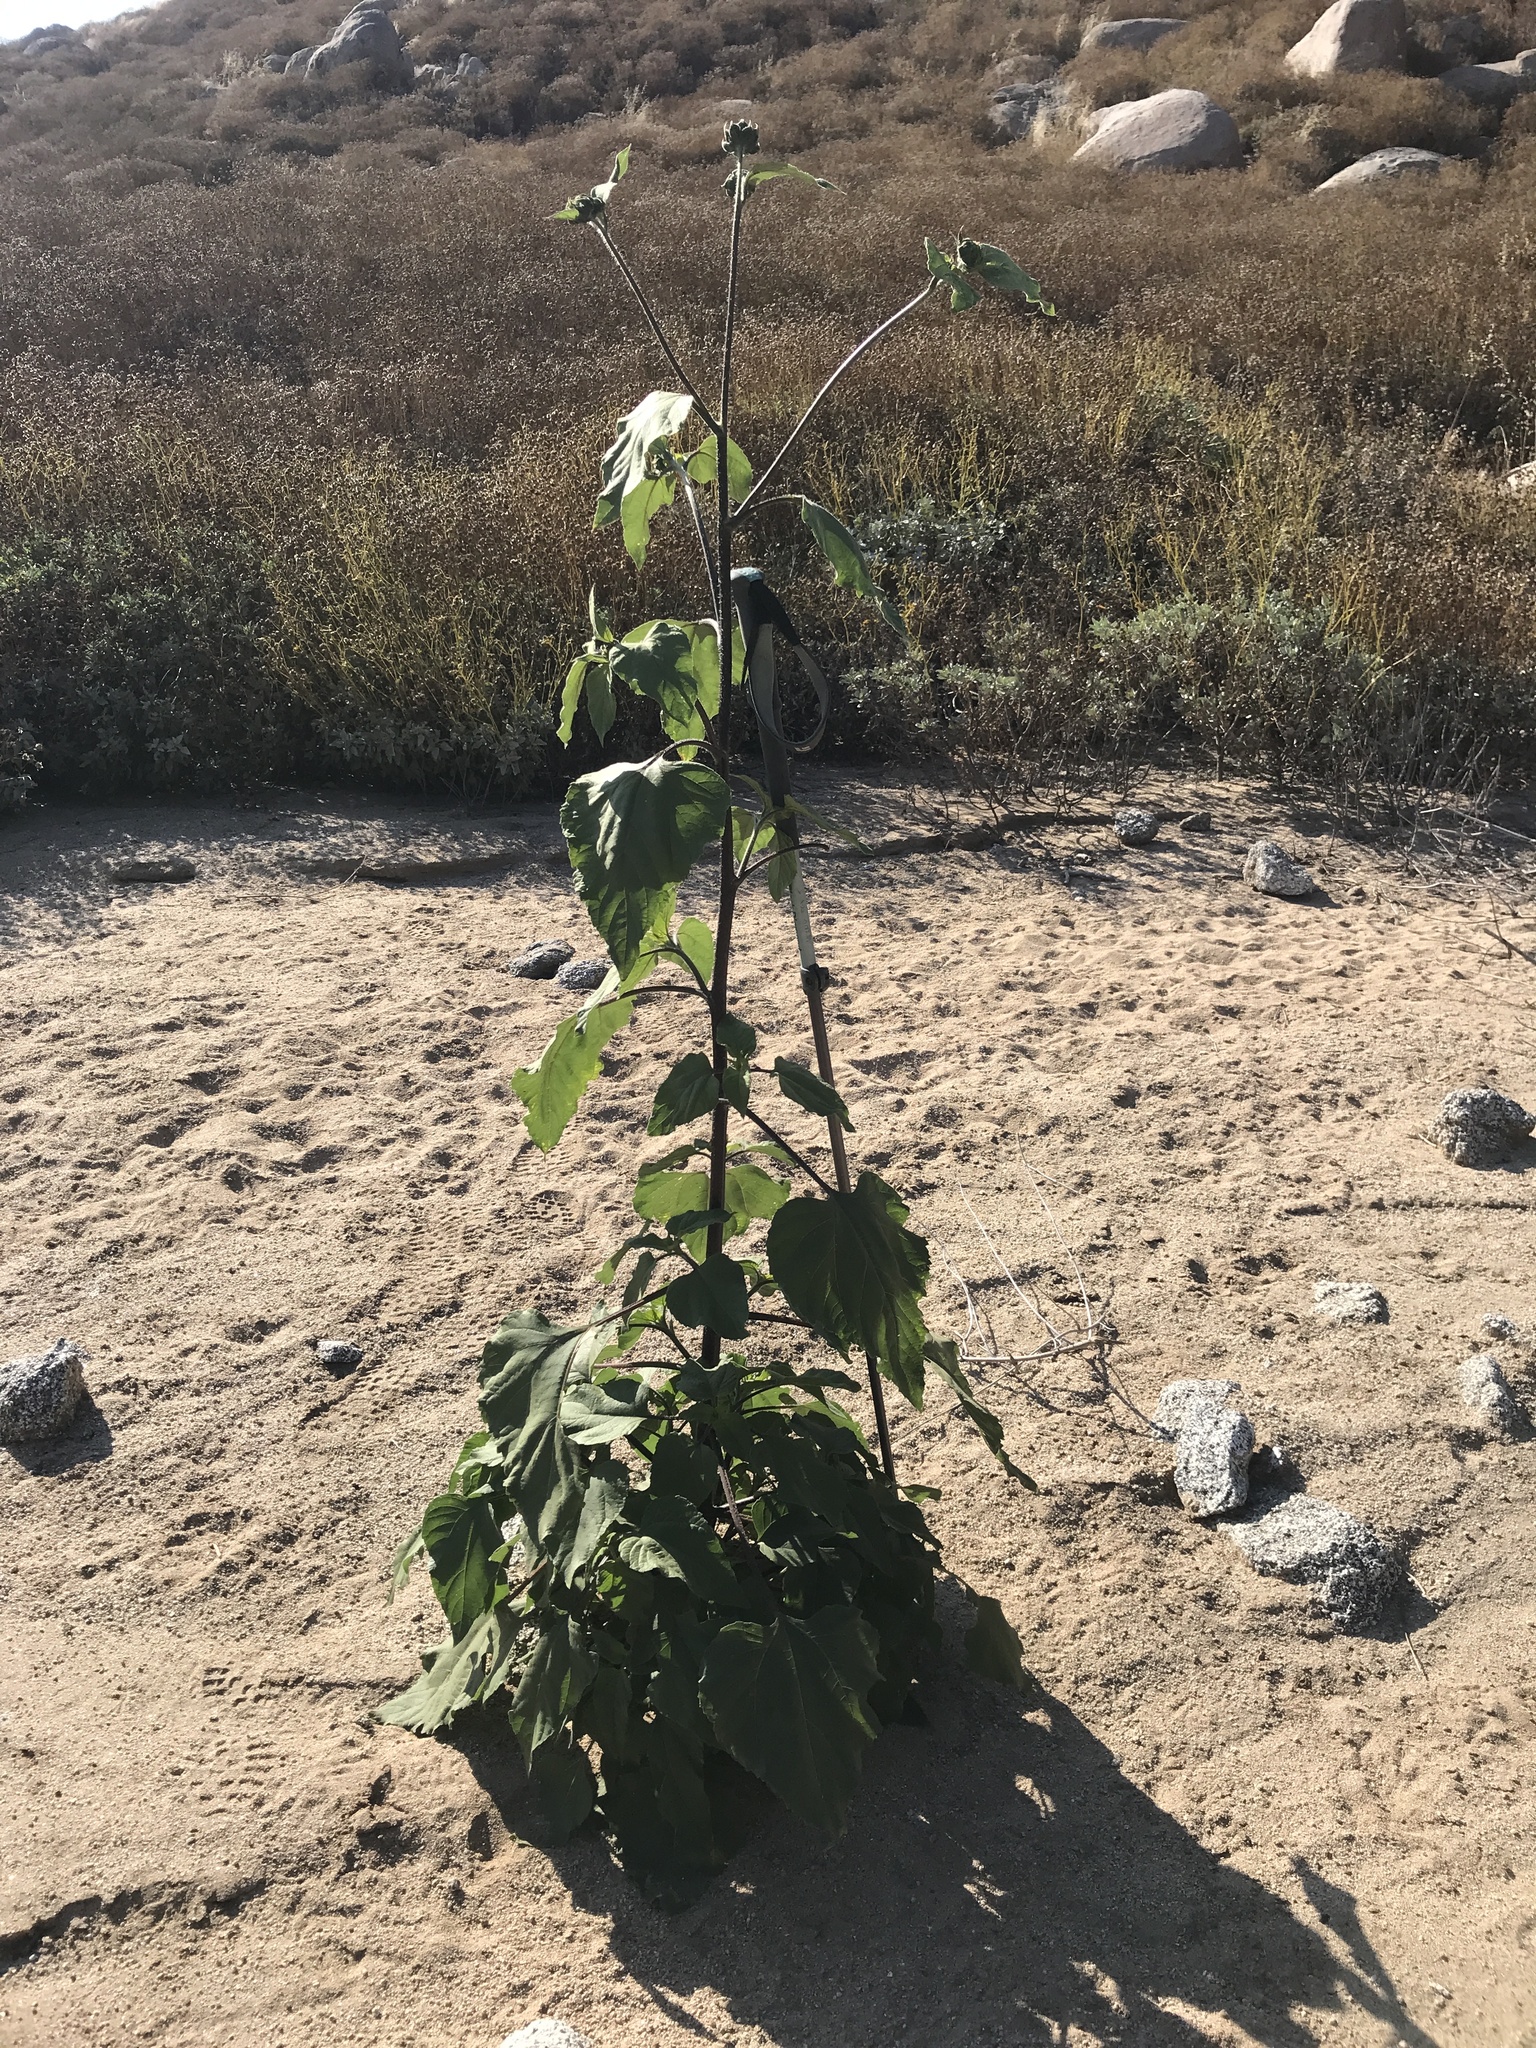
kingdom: Plantae
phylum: Tracheophyta
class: Magnoliopsida
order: Asterales
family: Asteraceae
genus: Helianthus
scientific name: Helianthus annuus
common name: Sunflower
